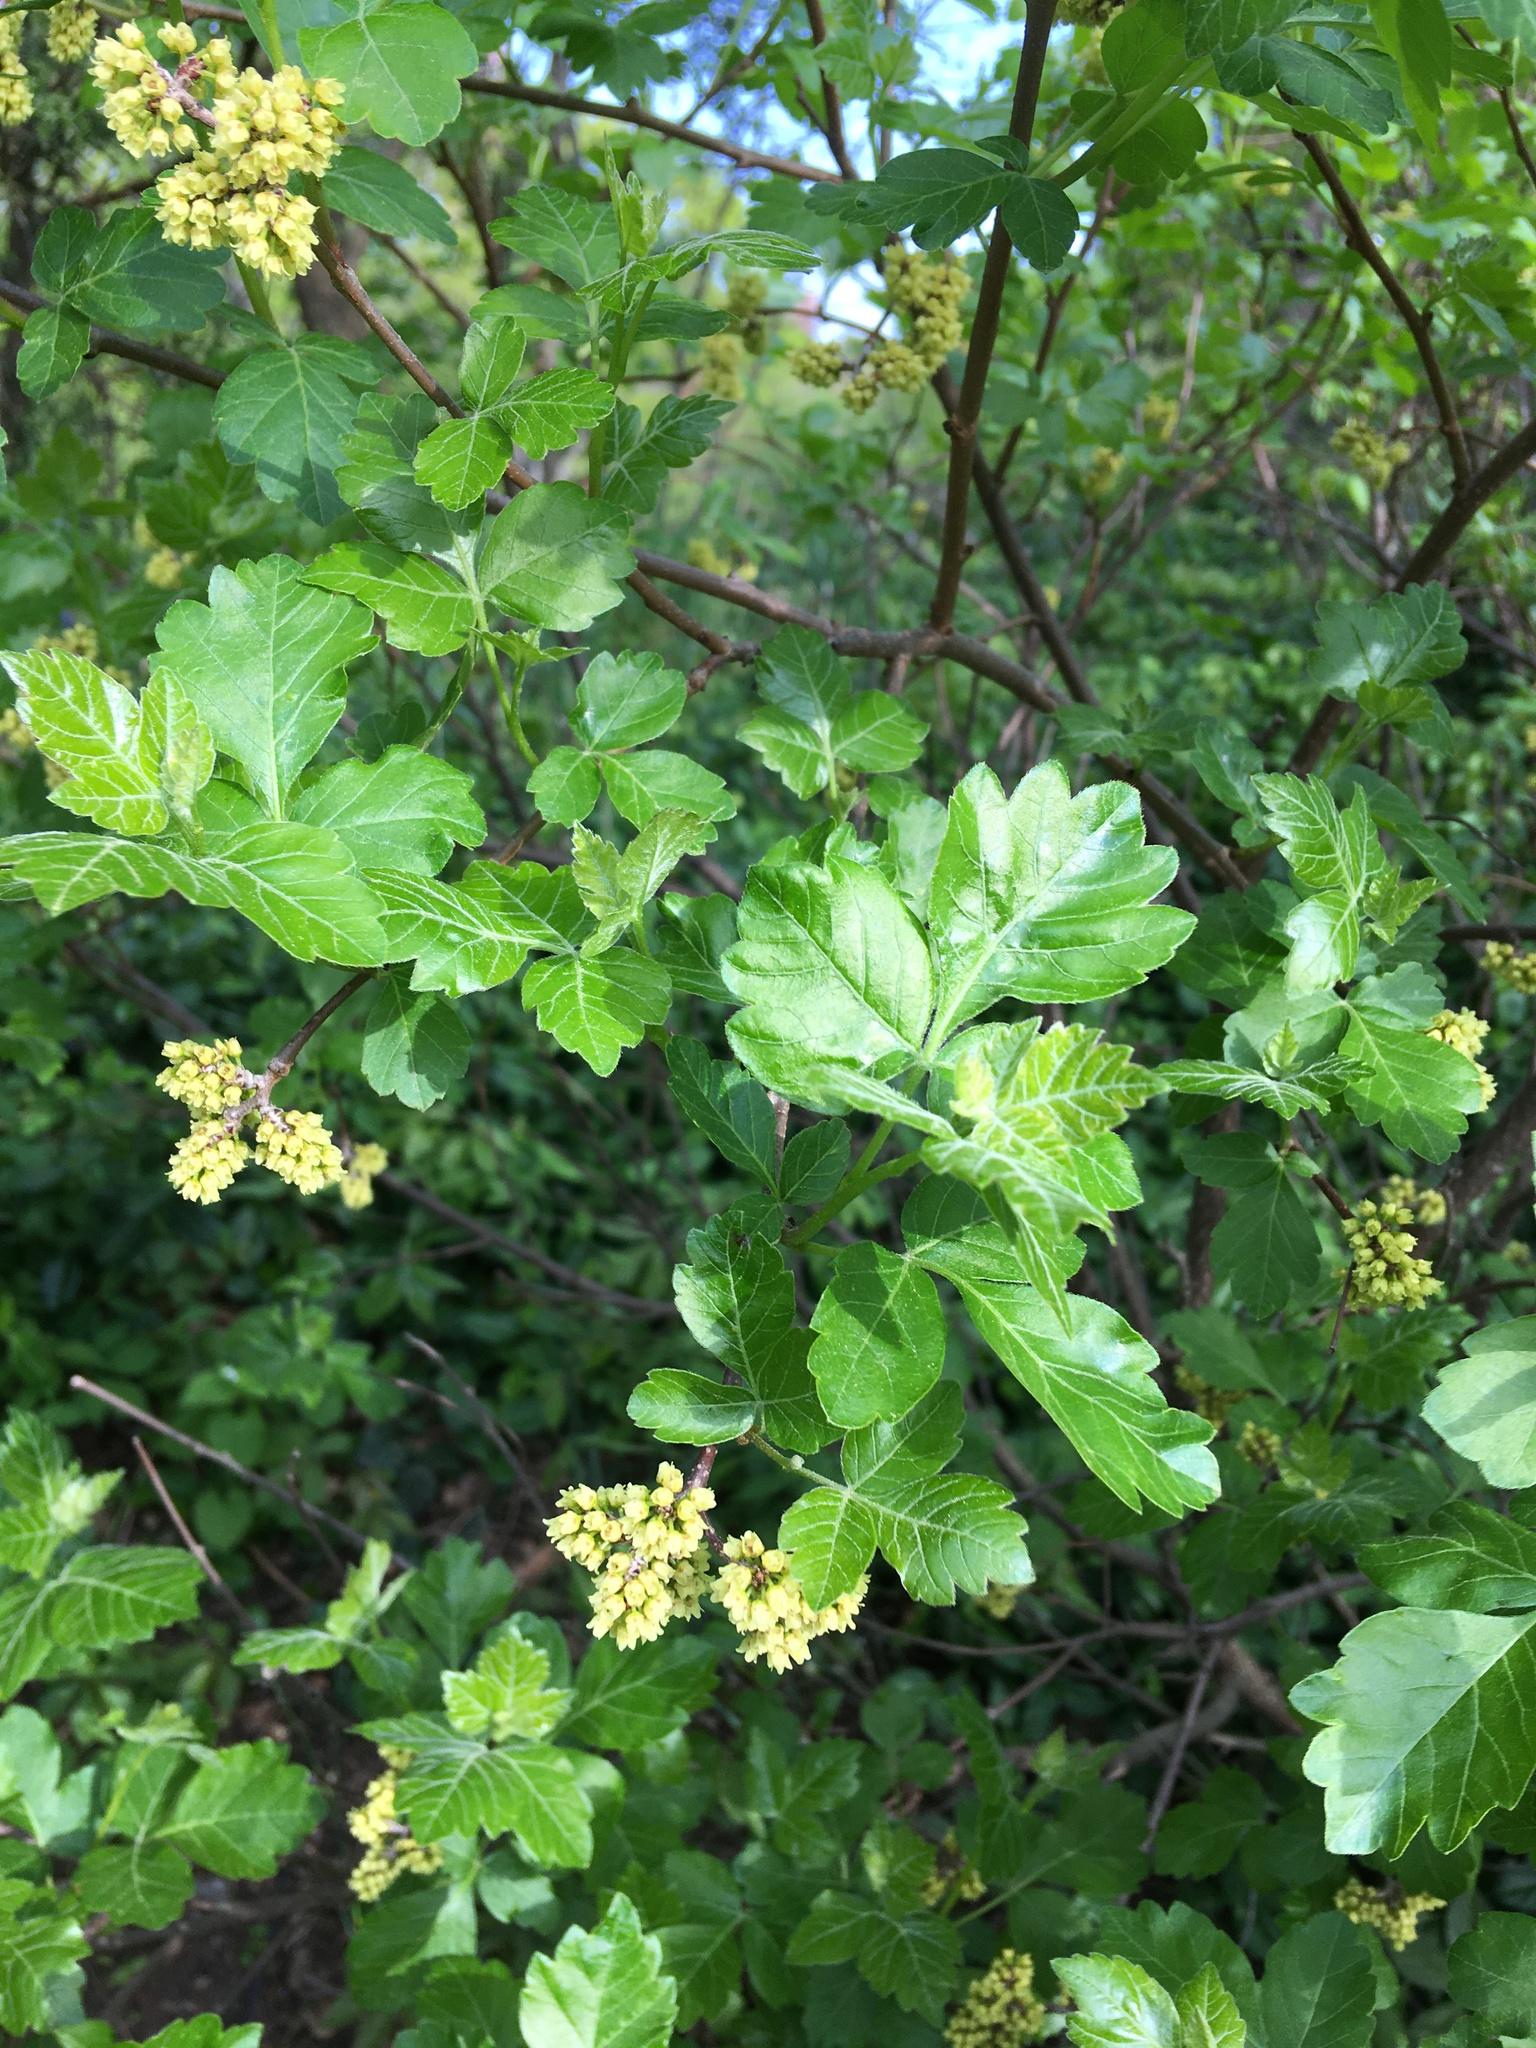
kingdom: Plantae
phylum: Tracheophyta
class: Magnoliopsida
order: Sapindales
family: Anacardiaceae
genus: Rhus
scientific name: Rhus aromatica
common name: Aromatic sumac
